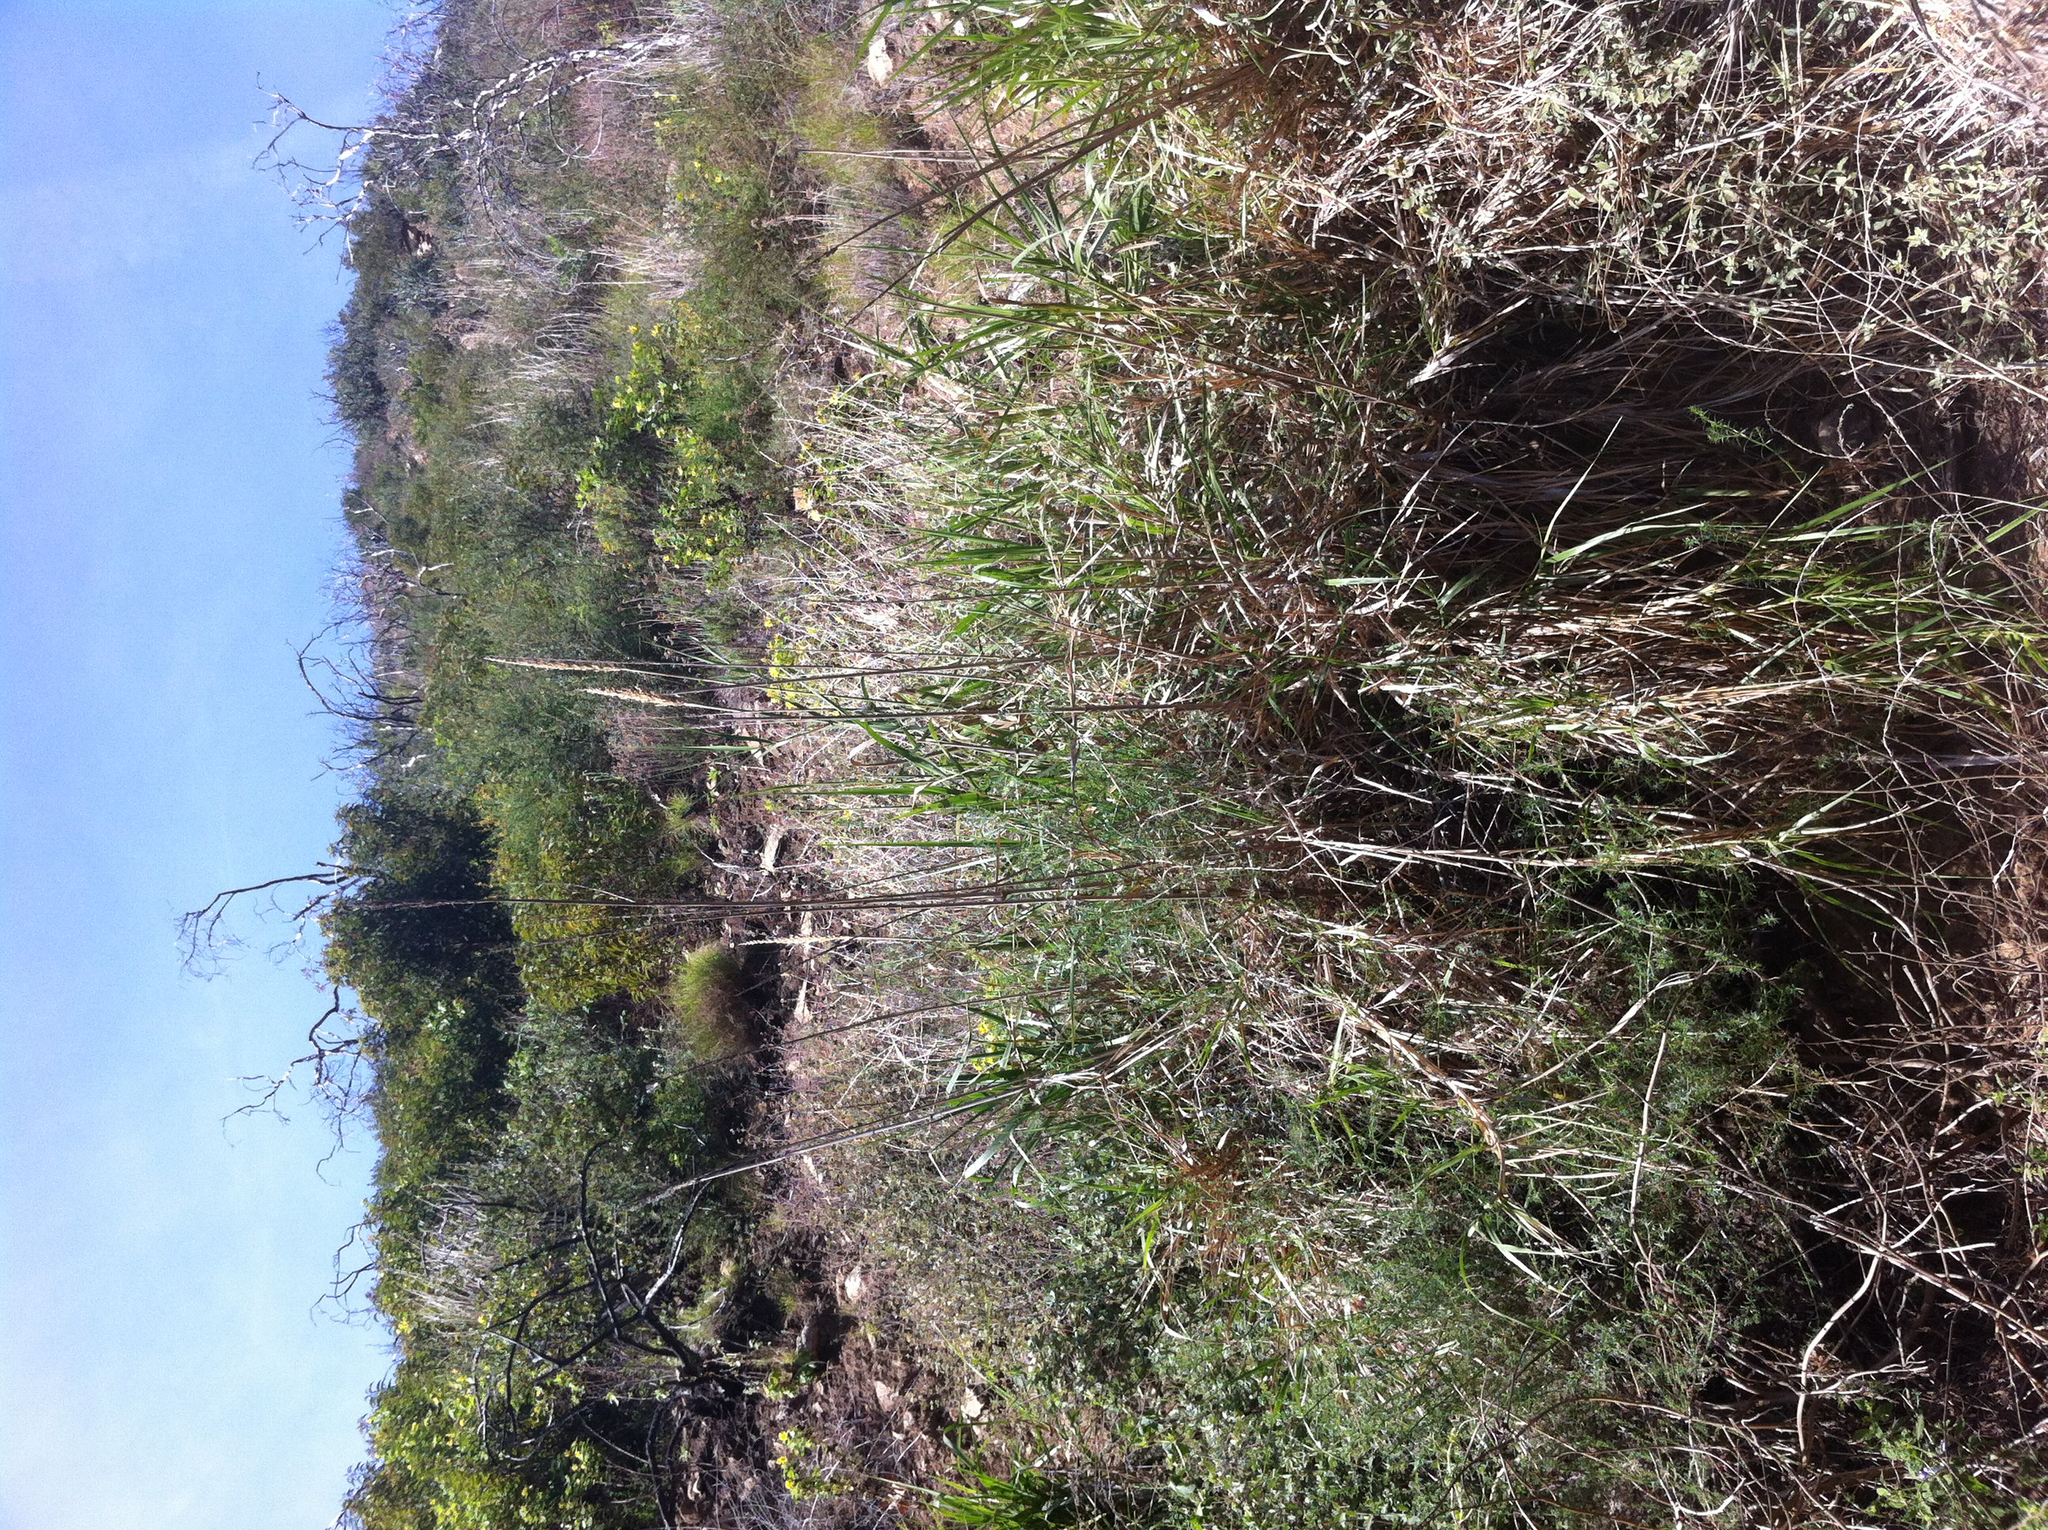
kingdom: Plantae
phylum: Tracheophyta
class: Liliopsida
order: Poales
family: Poaceae
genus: Leymus
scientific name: Leymus condensatus
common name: Giant wild rye
